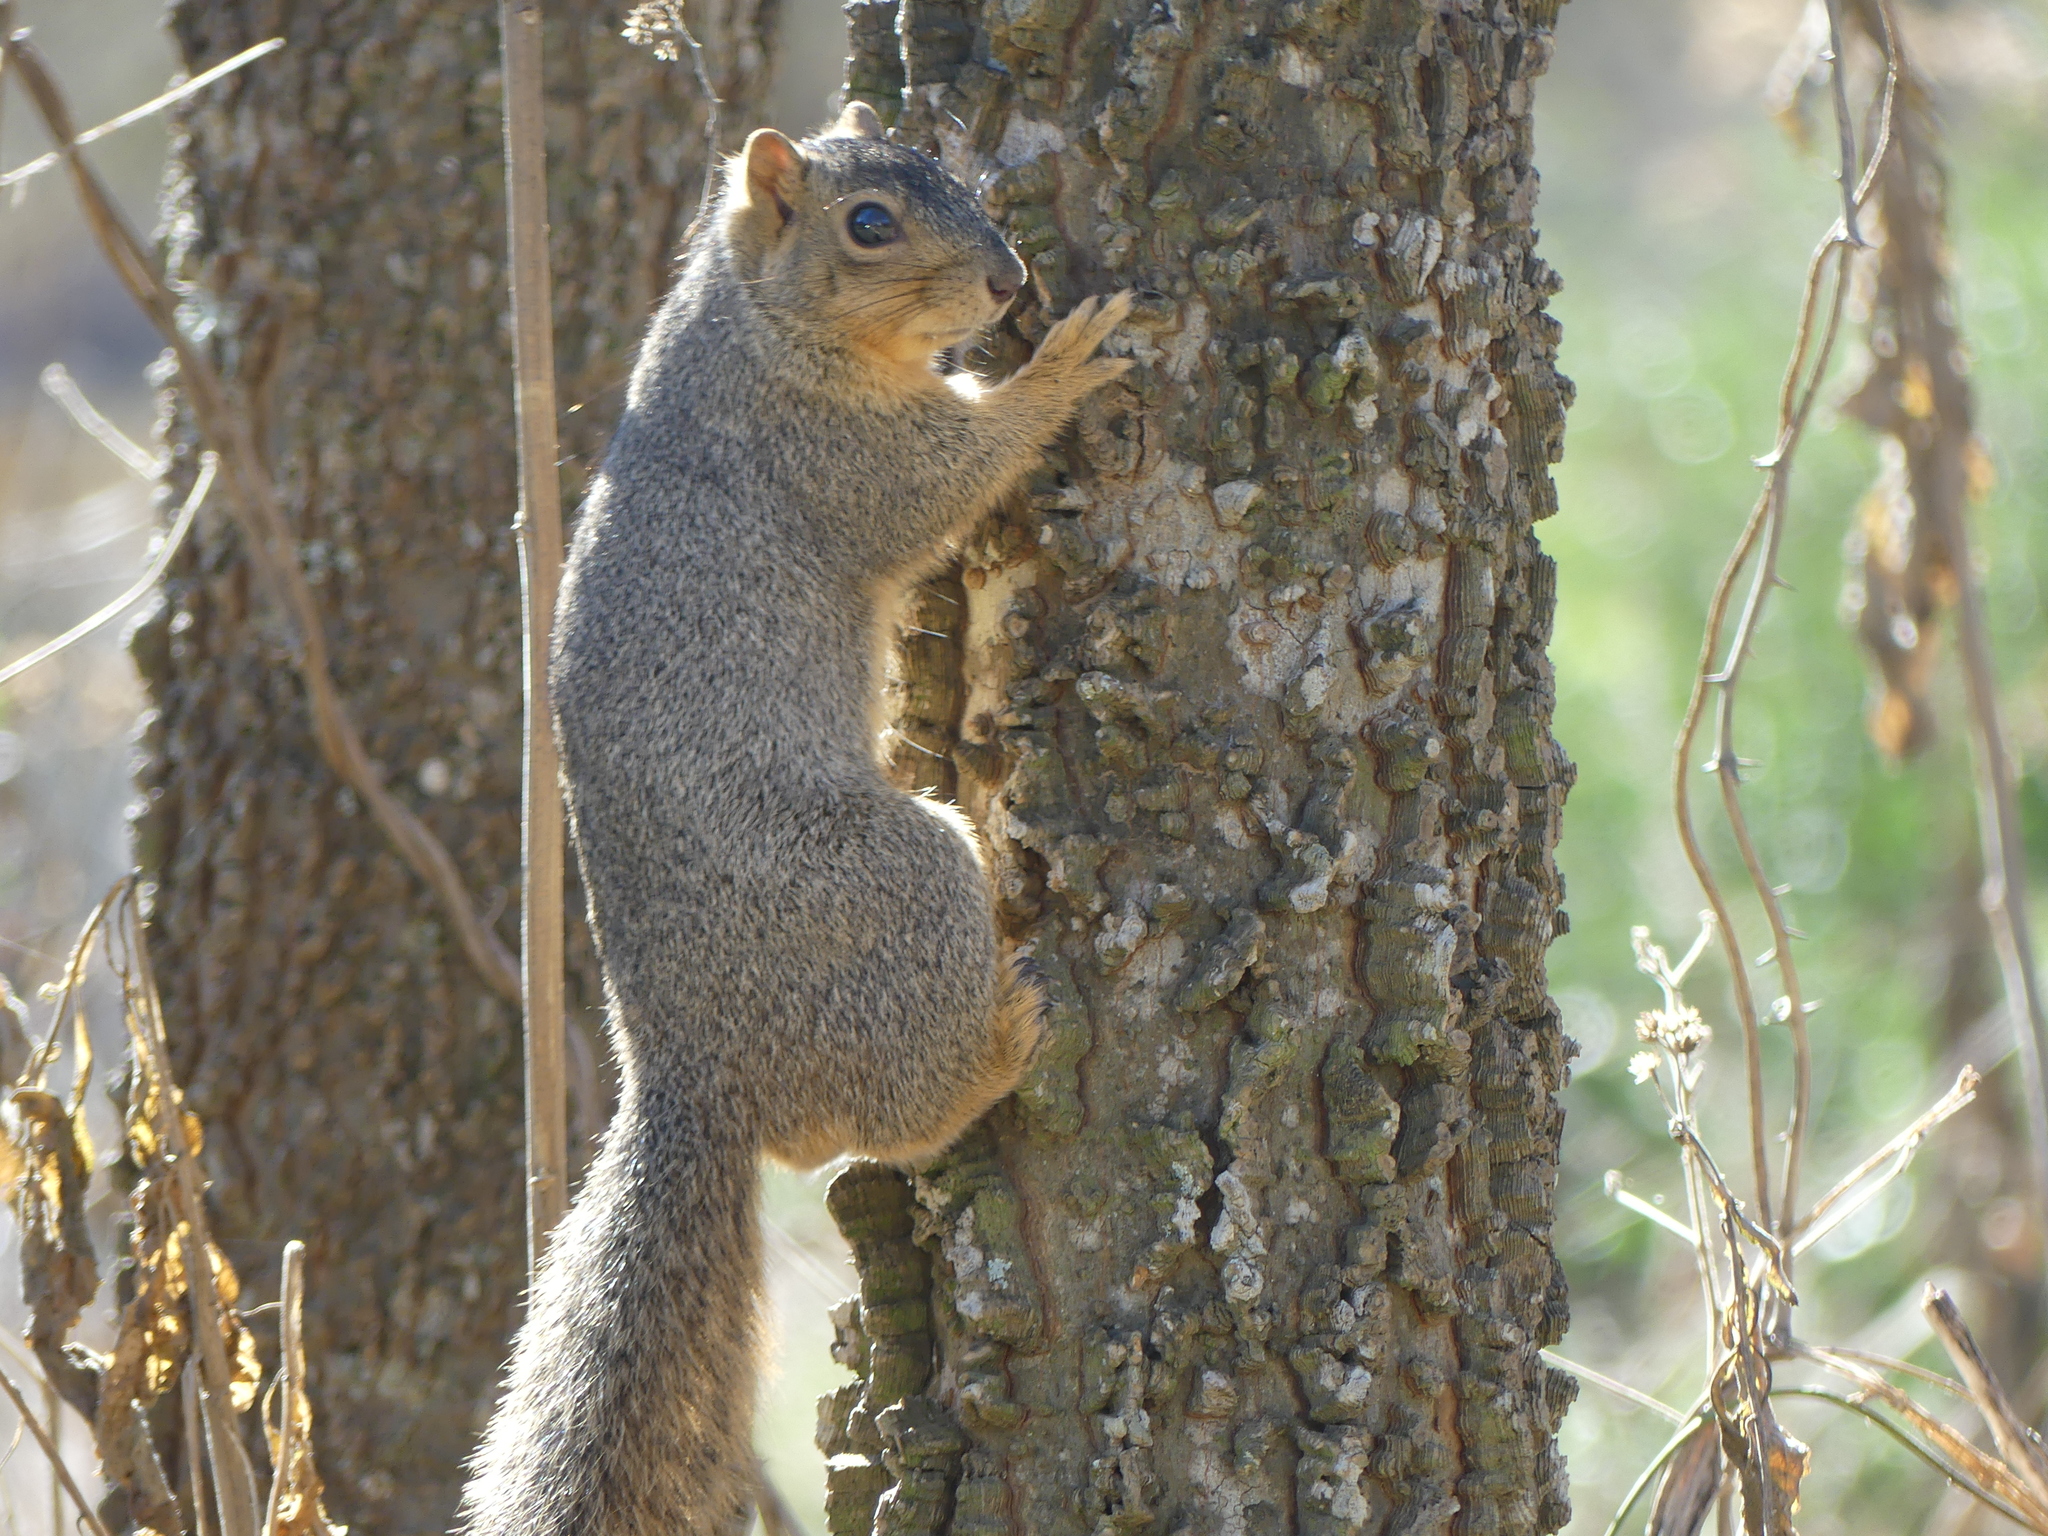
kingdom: Animalia
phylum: Chordata
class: Mammalia
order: Rodentia
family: Sciuridae
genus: Sciurus
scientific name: Sciurus niger
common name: Fox squirrel
